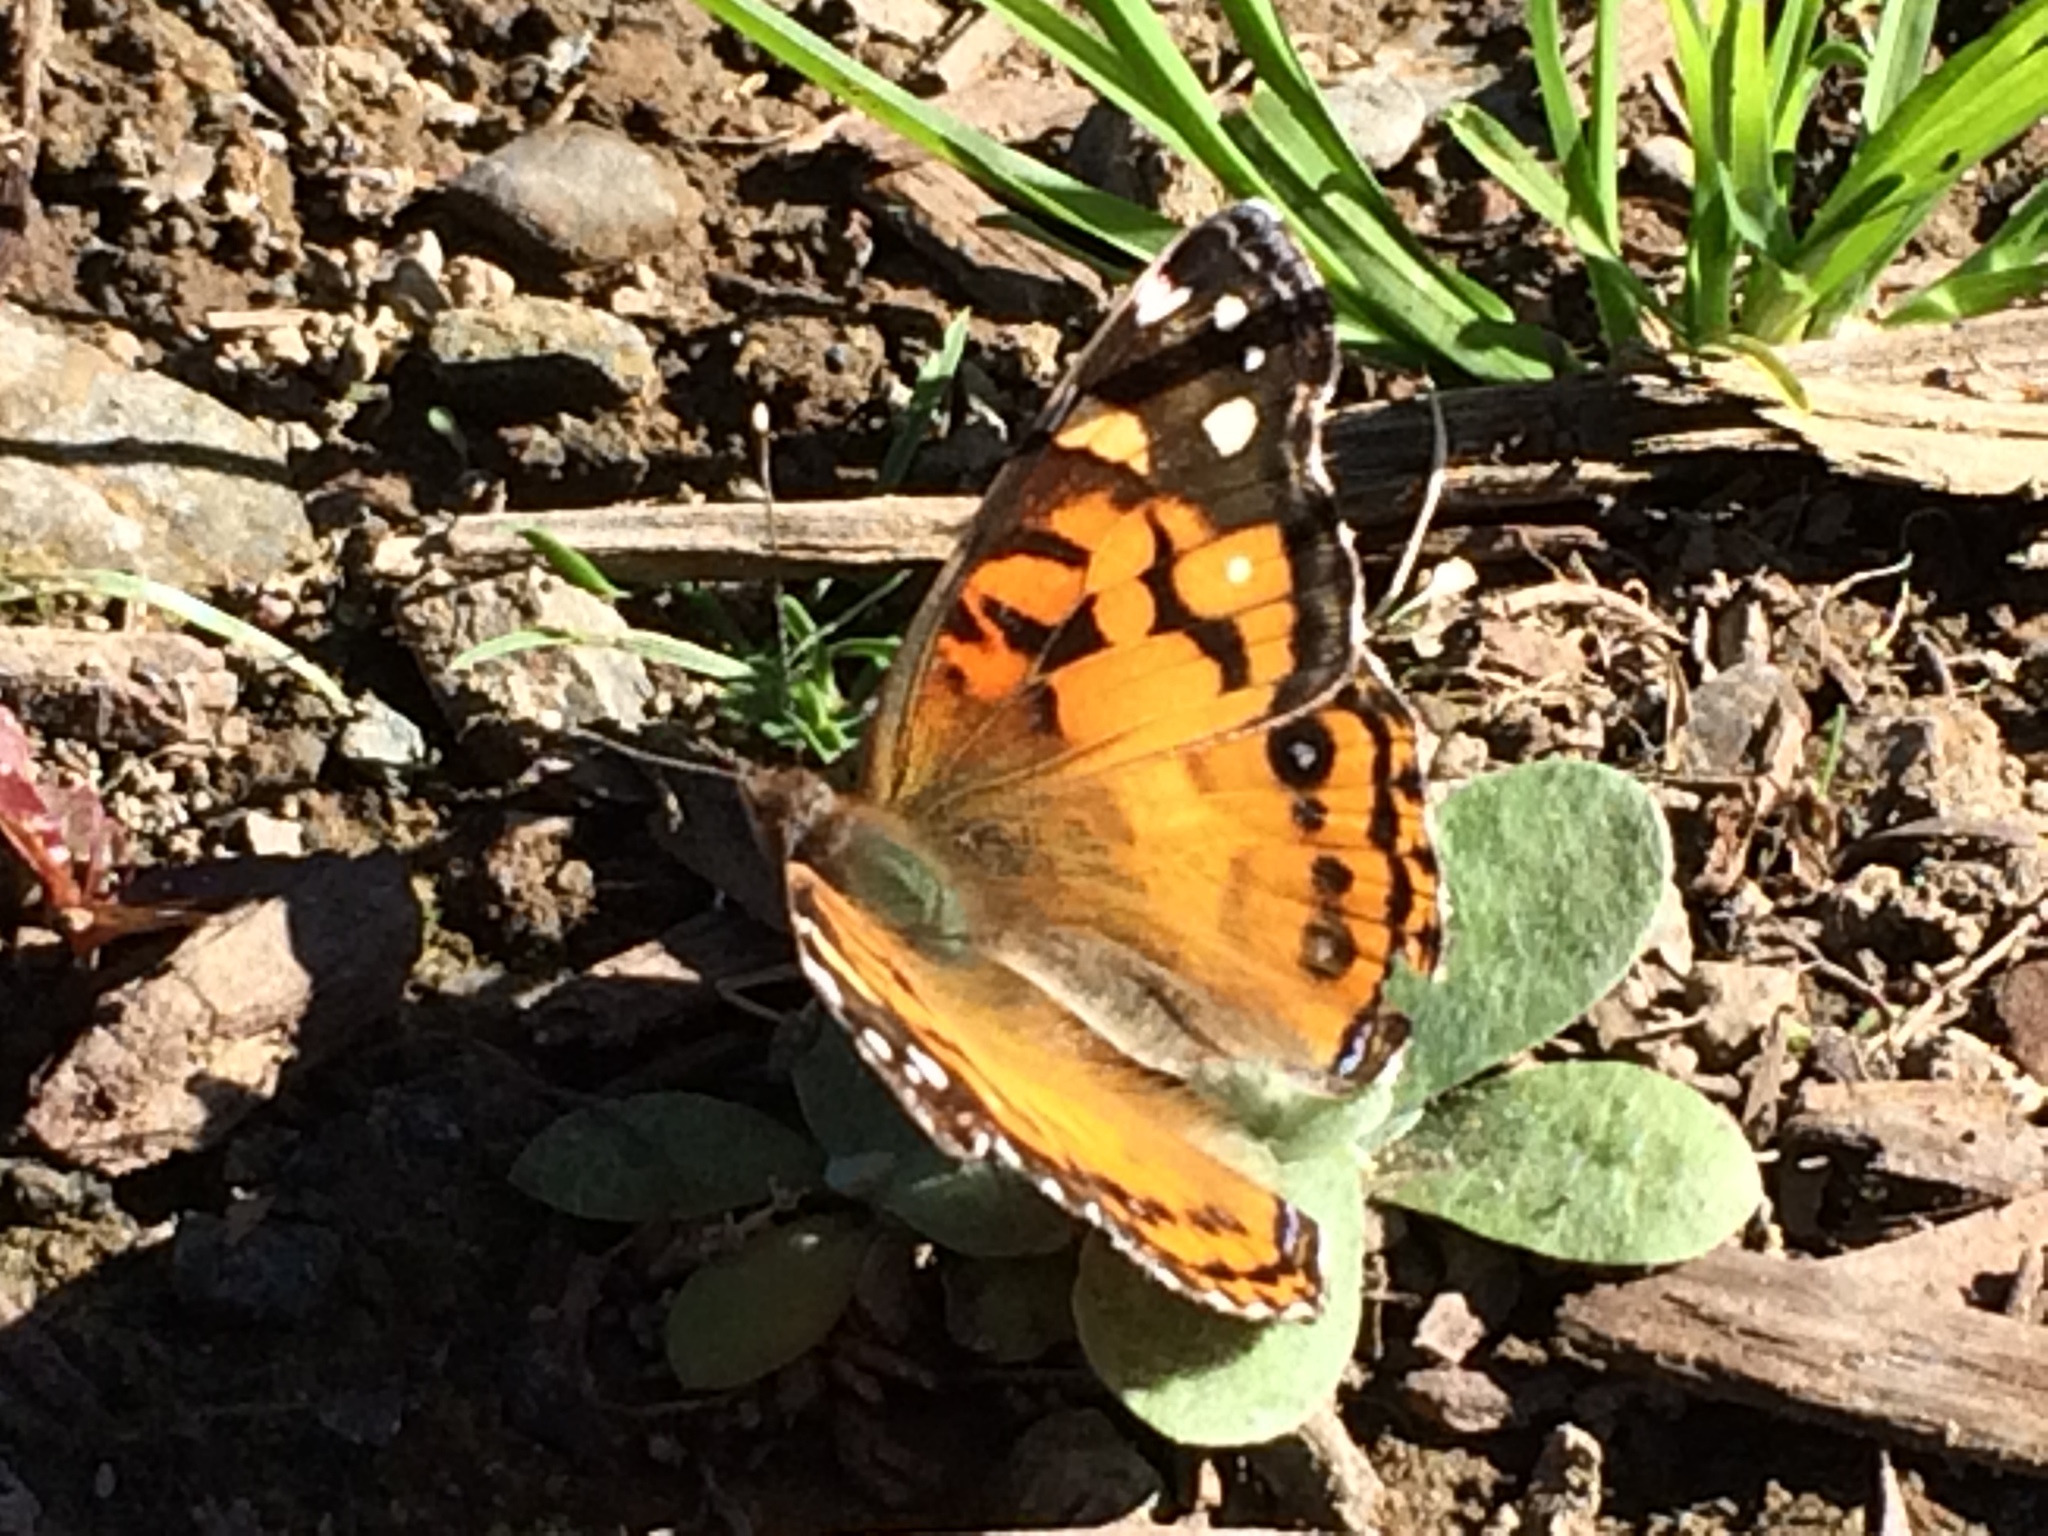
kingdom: Animalia
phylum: Arthropoda
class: Insecta
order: Lepidoptera
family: Nymphalidae
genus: Vanessa
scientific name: Vanessa virginiensis
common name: American lady
